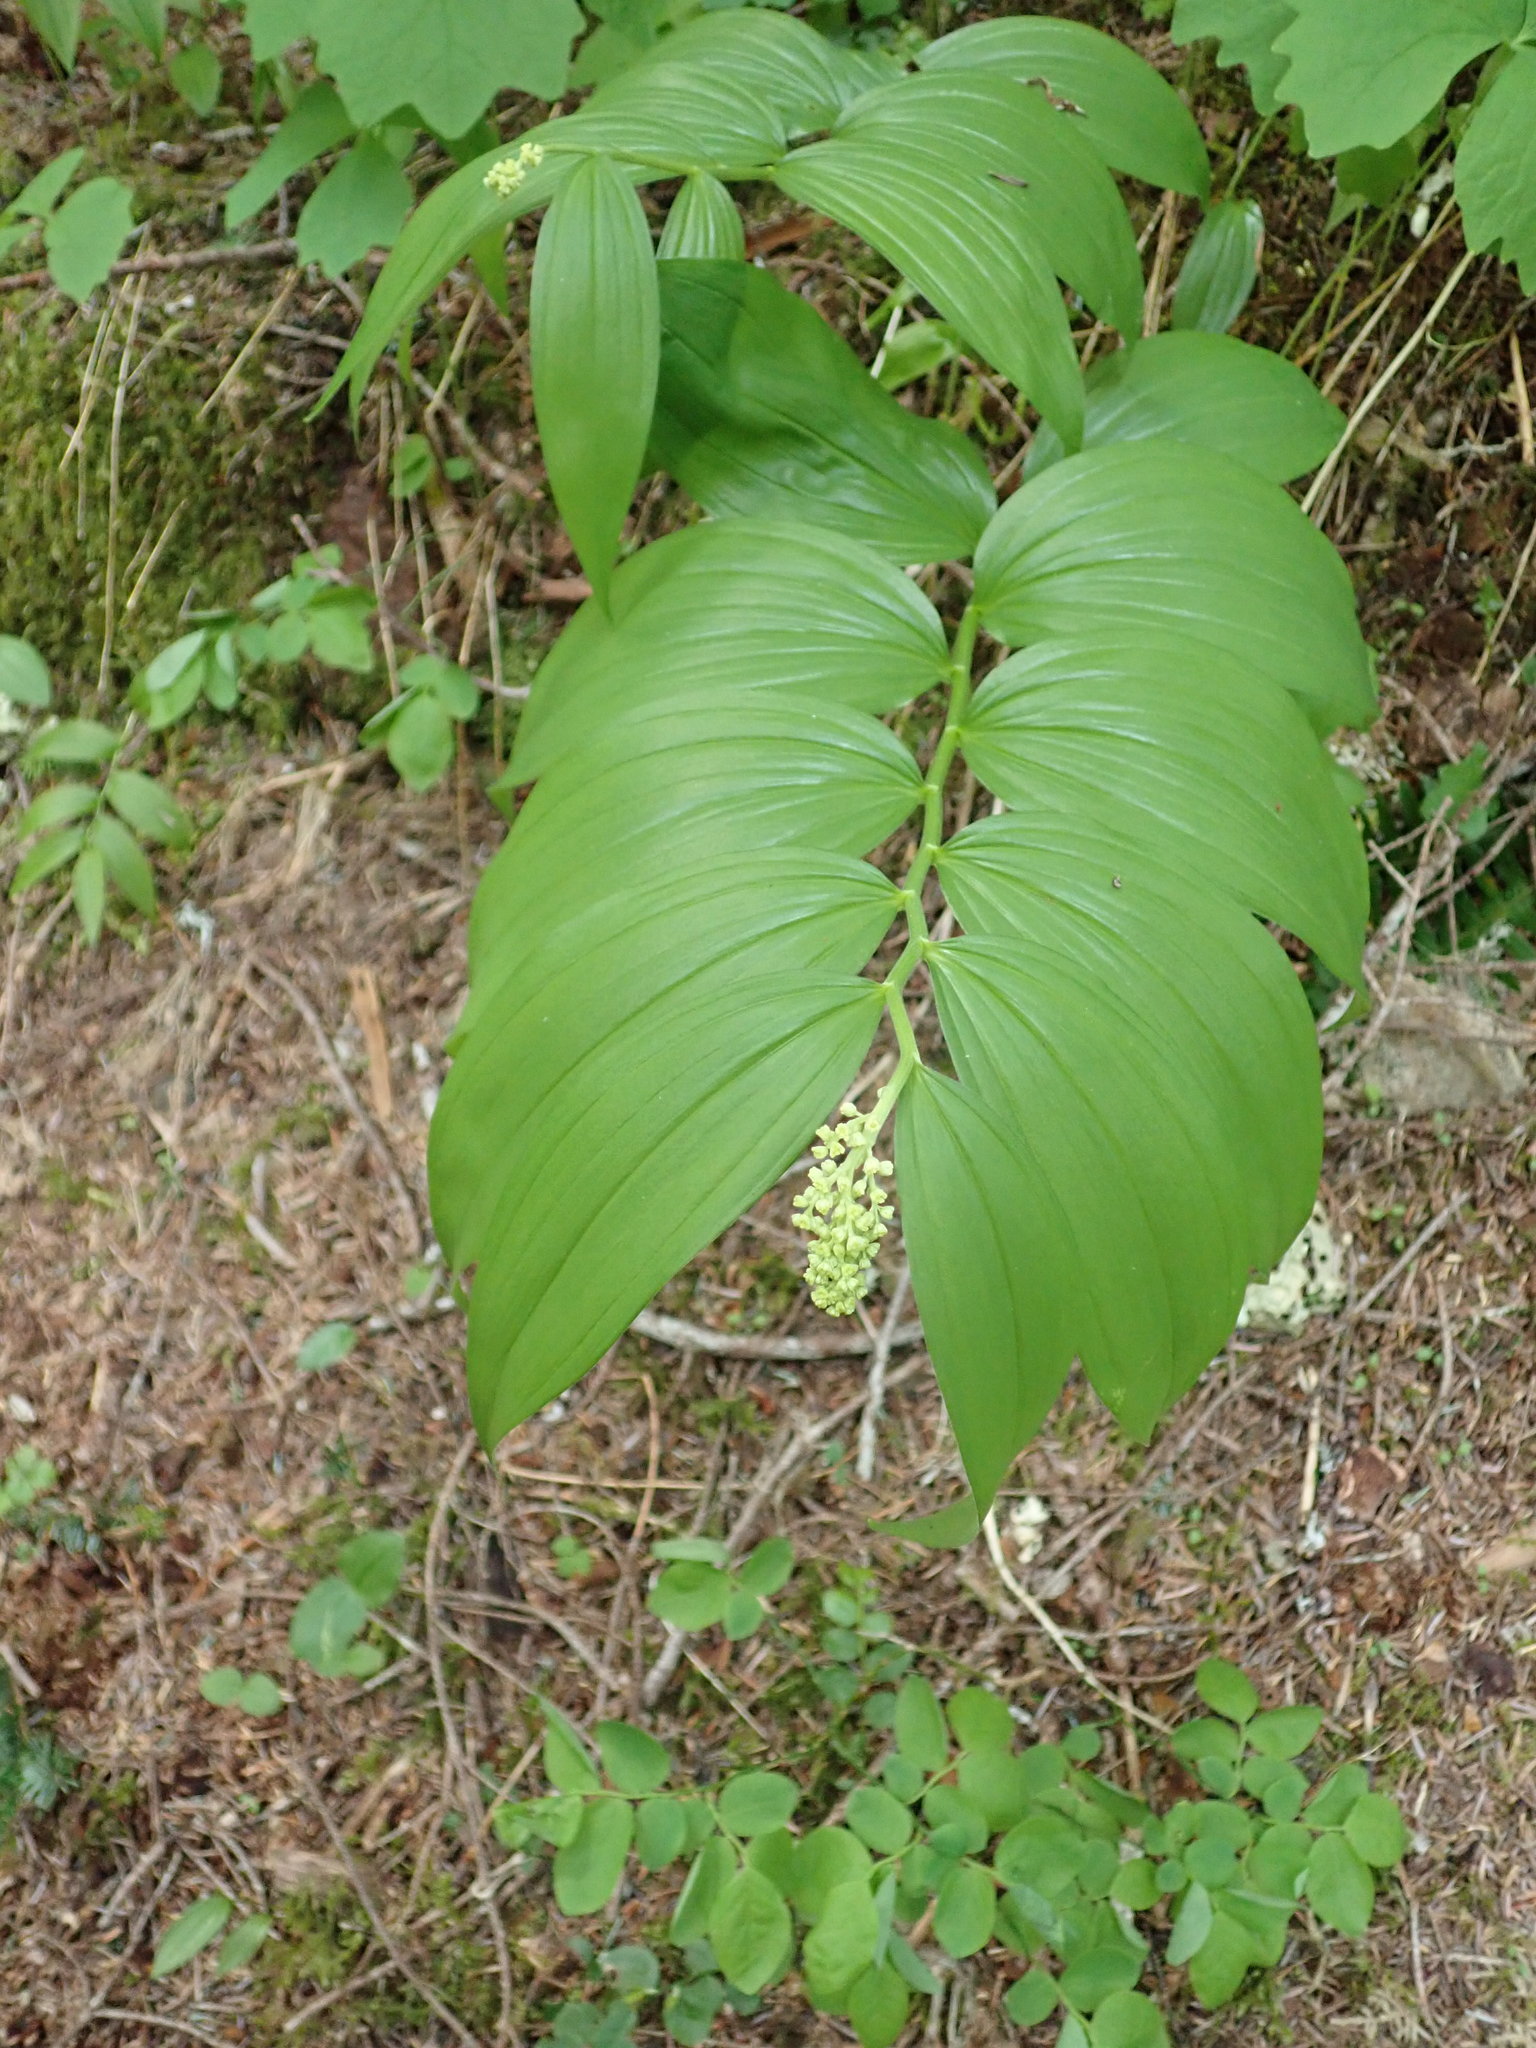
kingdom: Plantae
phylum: Tracheophyta
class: Liliopsida
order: Asparagales
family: Asparagaceae
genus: Maianthemum
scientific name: Maianthemum racemosum
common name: False spikenard
